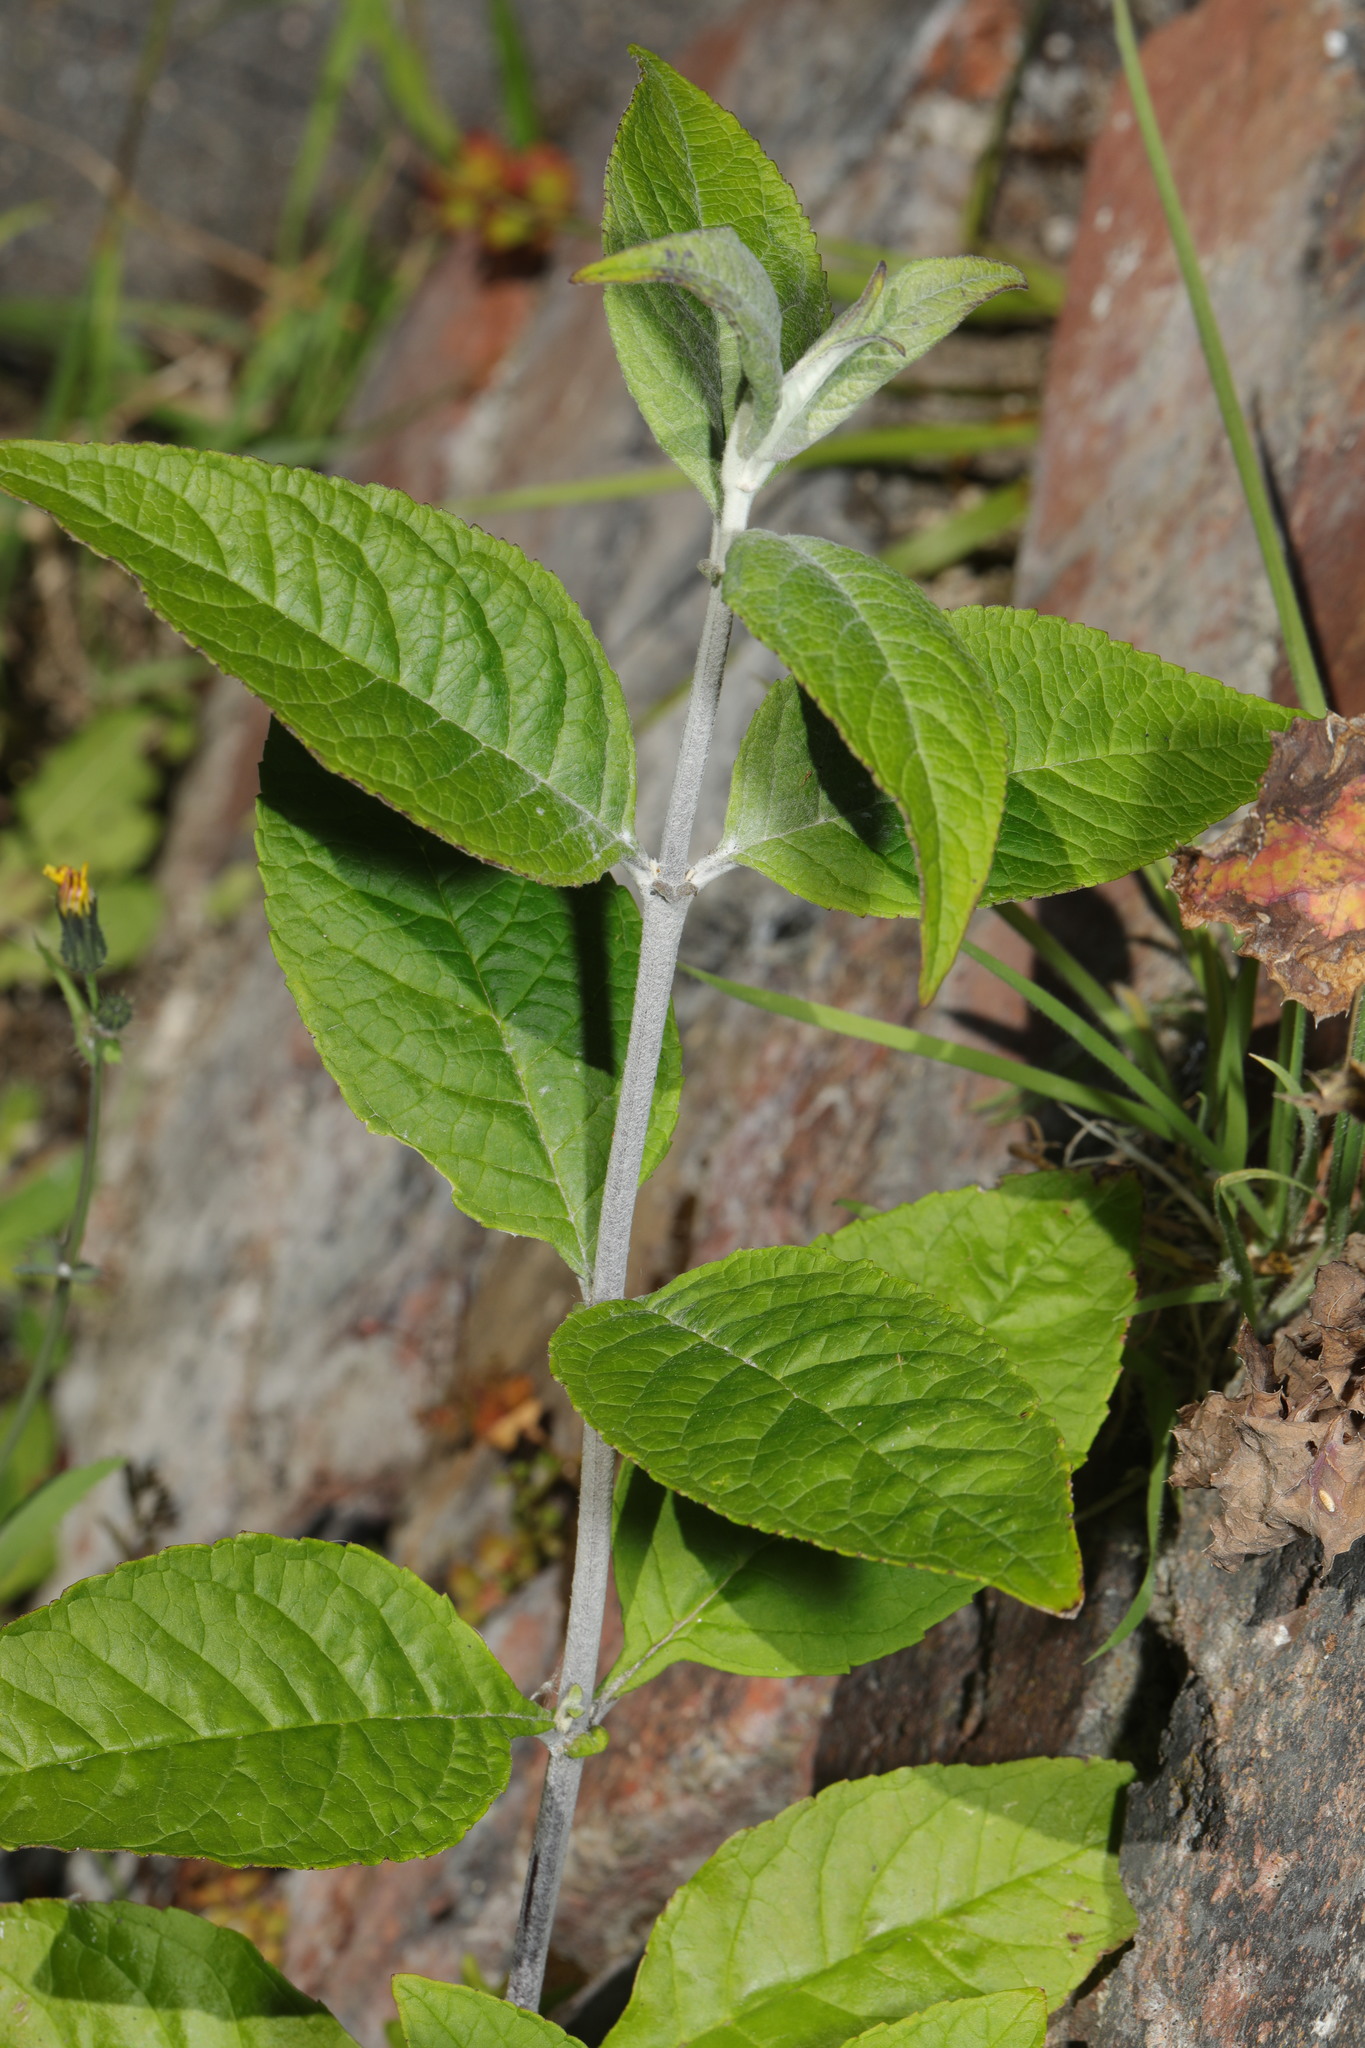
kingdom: Plantae
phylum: Tracheophyta
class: Magnoliopsida
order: Lamiales
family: Scrophulariaceae
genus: Buddleja
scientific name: Buddleja davidii
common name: Butterfly-bush
